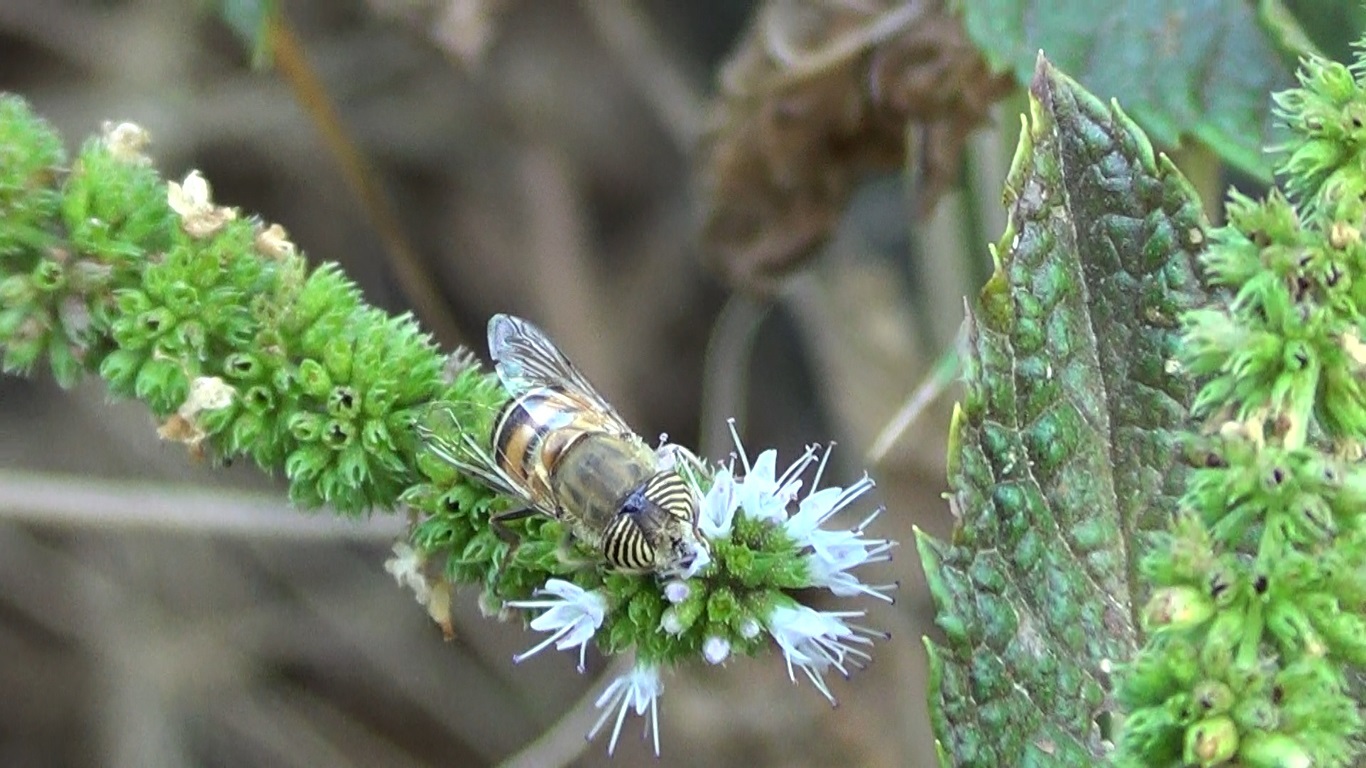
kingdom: Animalia
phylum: Arthropoda
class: Insecta
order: Diptera
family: Syrphidae
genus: Eristalinus
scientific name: Eristalinus taeniops
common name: Syrphid fly
